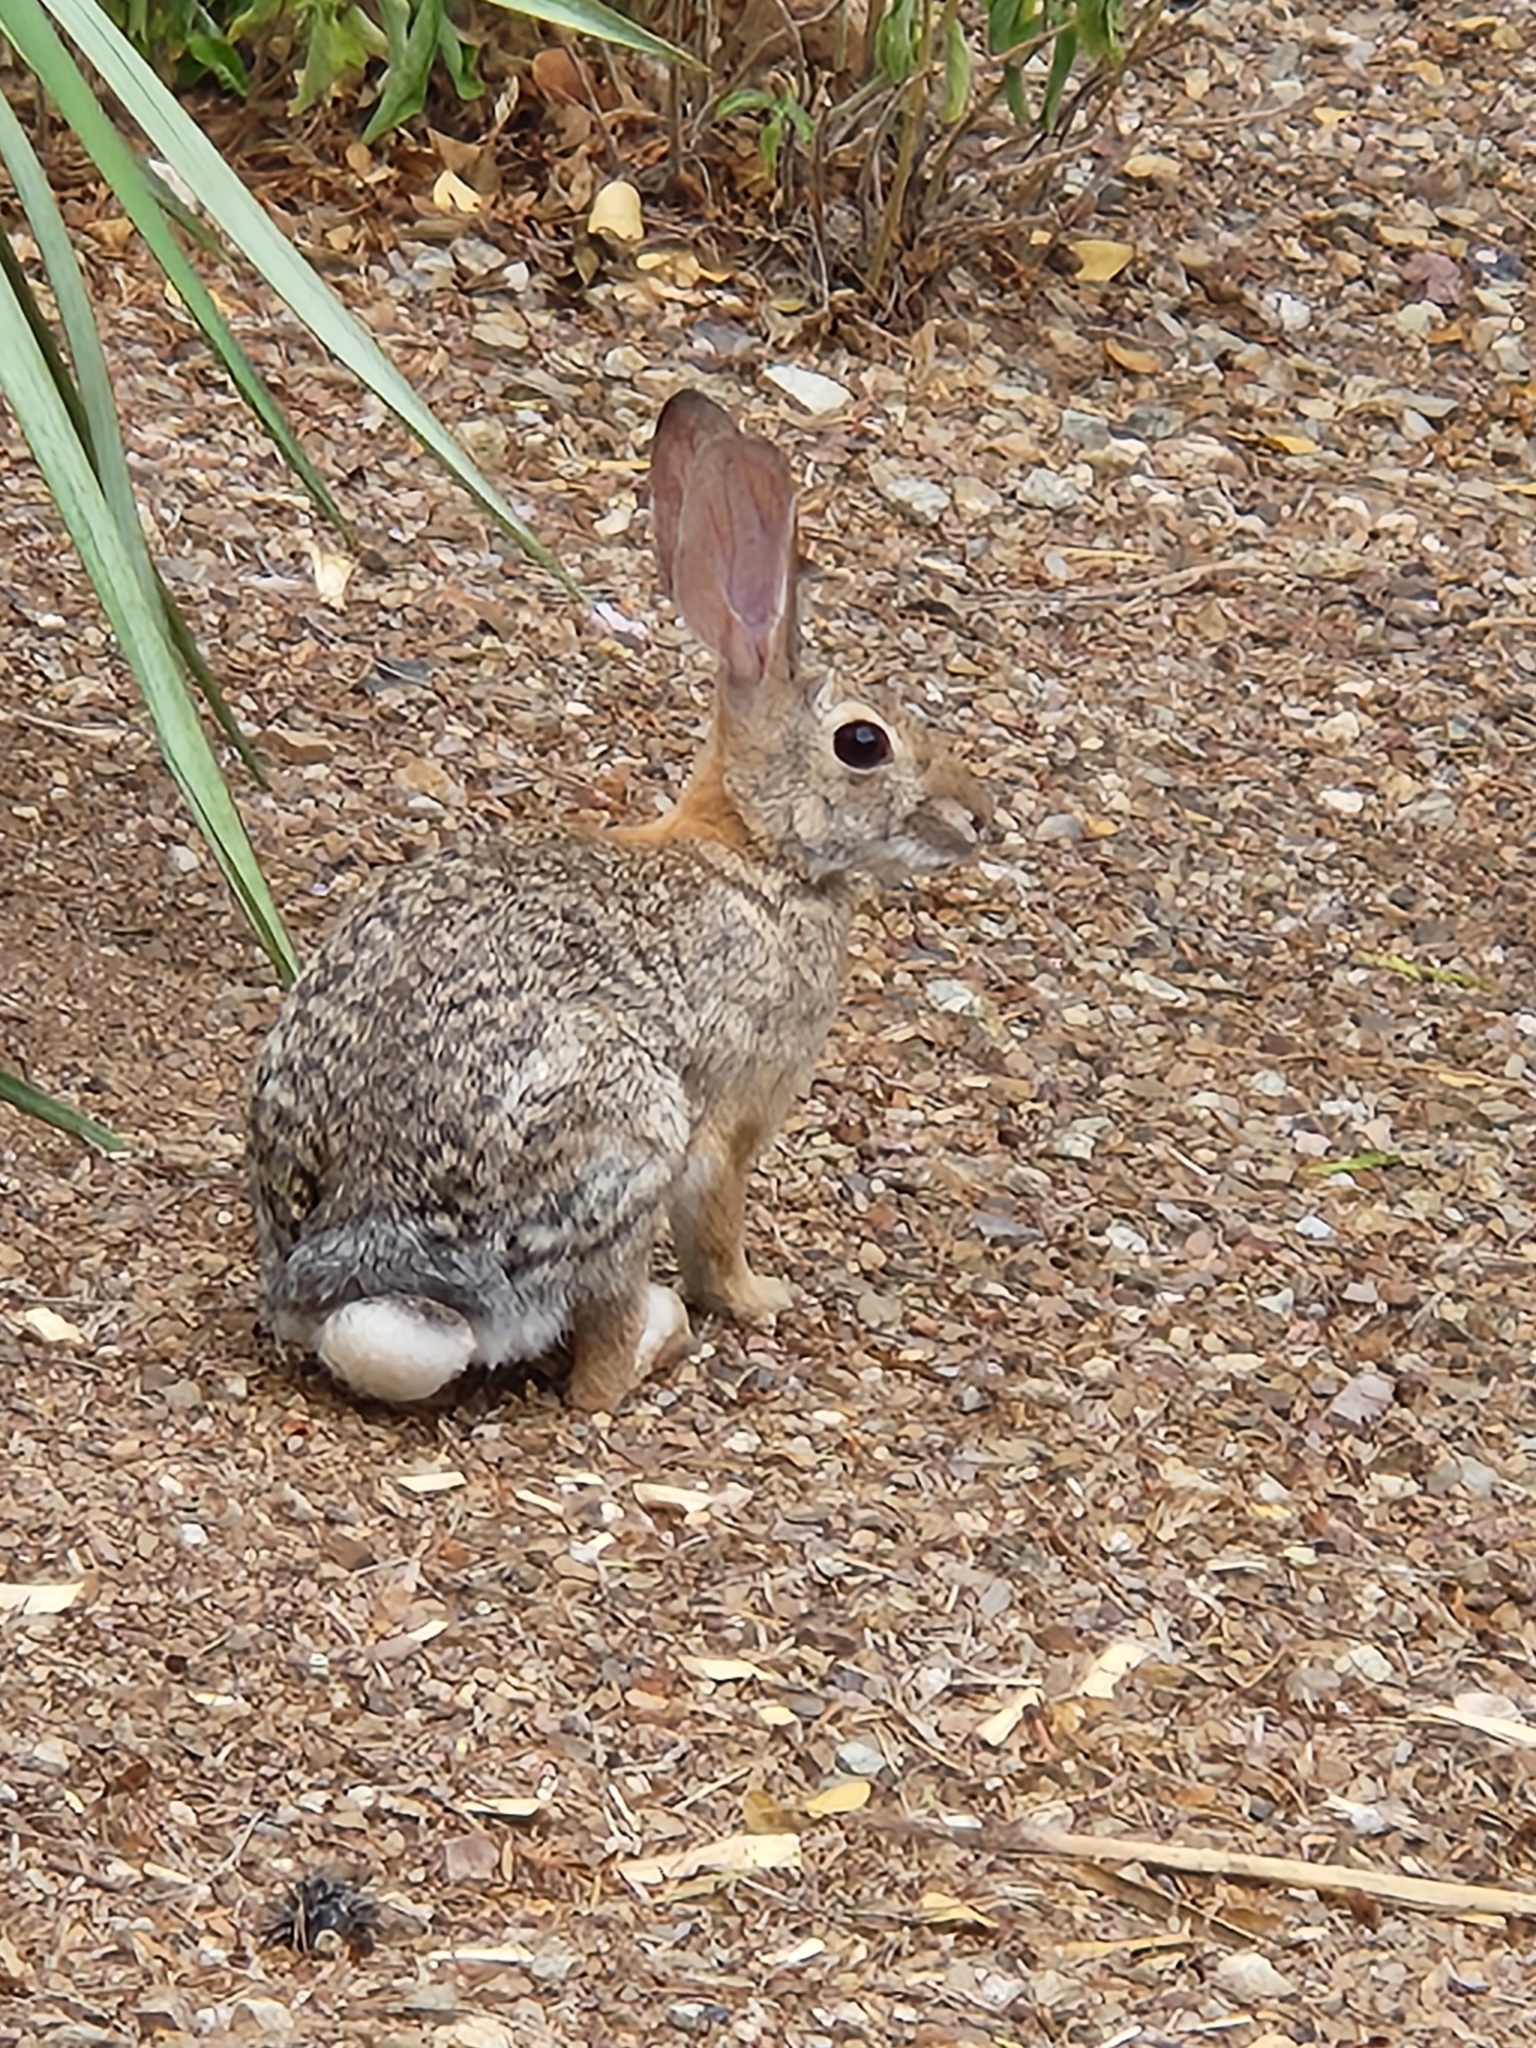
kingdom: Animalia
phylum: Chordata
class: Mammalia
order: Lagomorpha
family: Leporidae
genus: Sylvilagus
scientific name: Sylvilagus audubonii
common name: Desert cottontail
